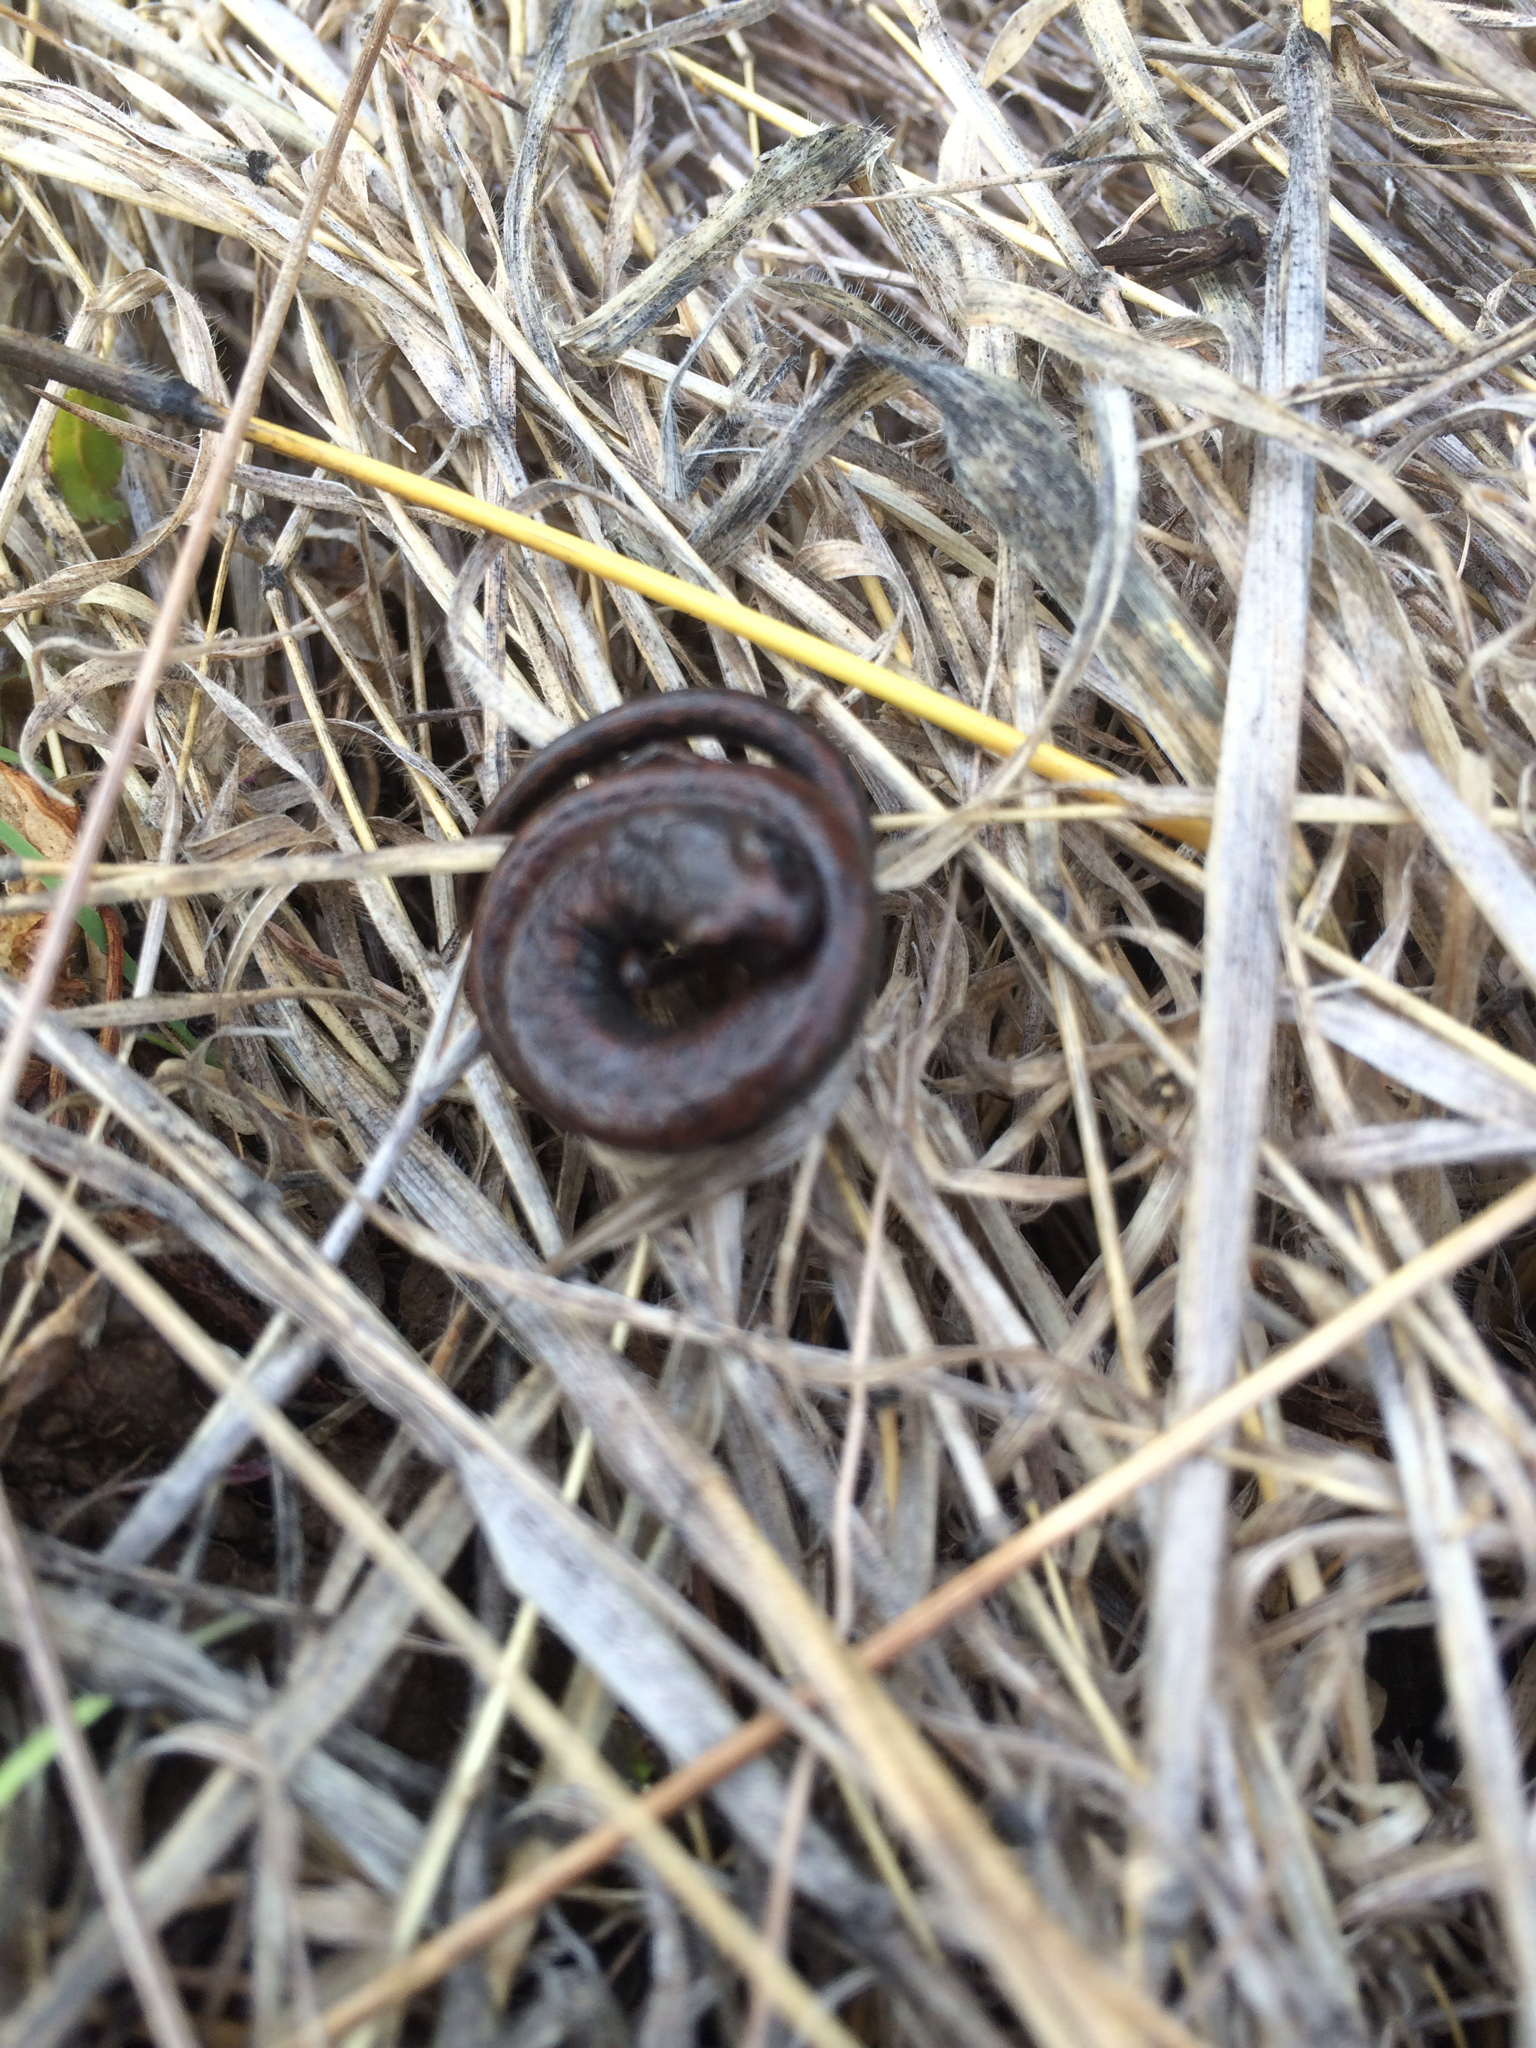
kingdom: Animalia
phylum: Chordata
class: Amphibia
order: Caudata
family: Plethodontidae
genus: Batrachoseps
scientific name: Batrachoseps attenuatus
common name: California slender salamander
